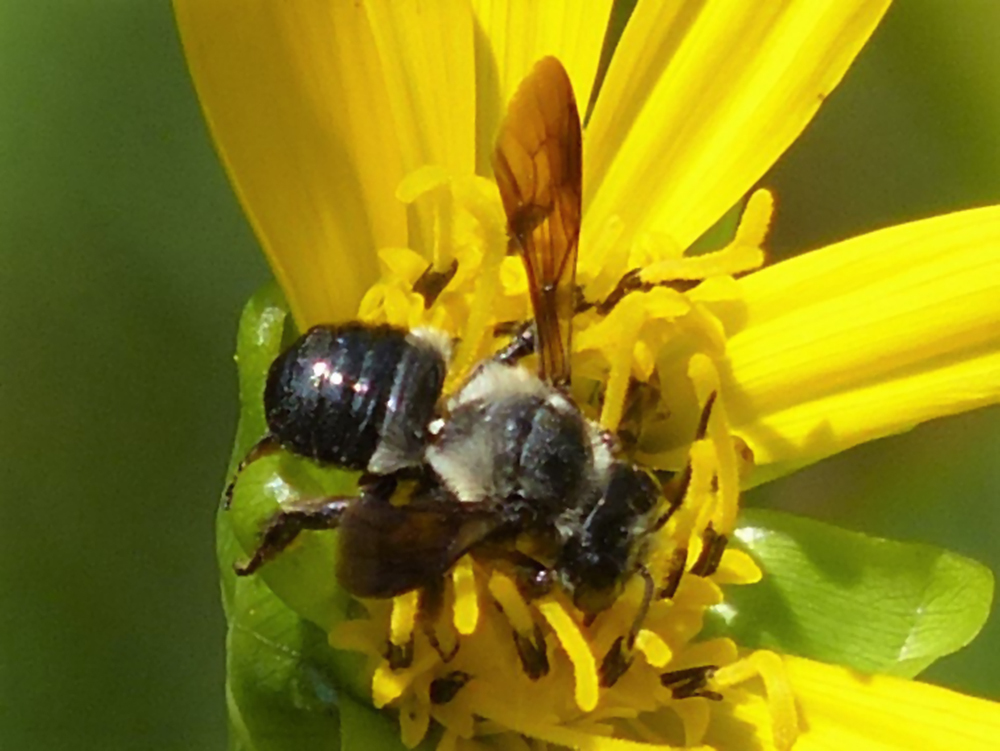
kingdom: Animalia
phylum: Arthropoda
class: Insecta
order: Hymenoptera
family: Megachilidae
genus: Megachile
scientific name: Megachile xylocopoides
